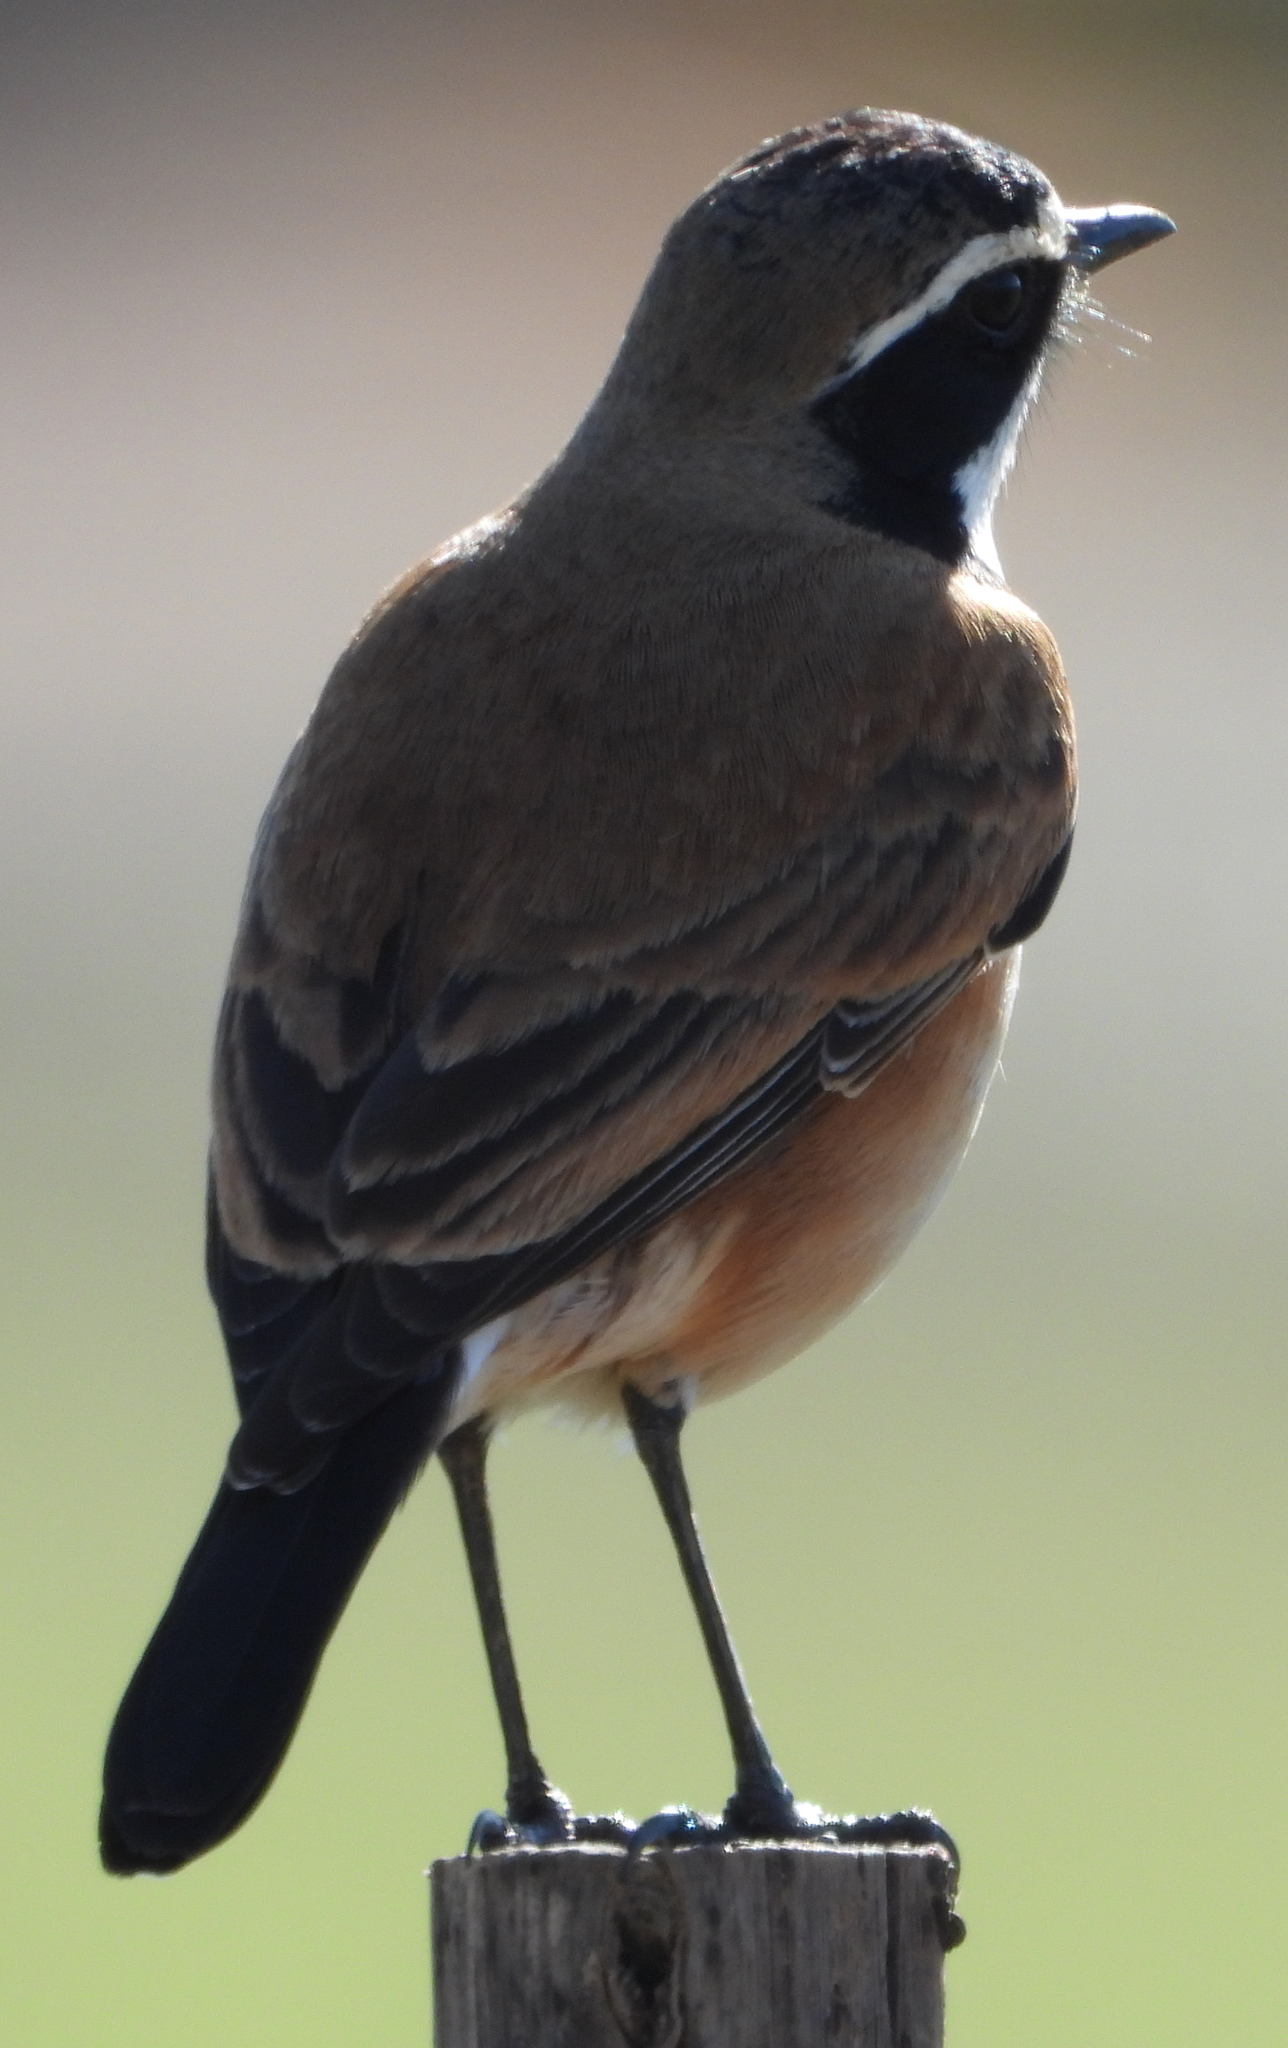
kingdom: Animalia
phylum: Chordata
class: Aves
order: Passeriformes
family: Muscicapidae
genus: Oenanthe
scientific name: Oenanthe pileata
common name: Capped wheatear
